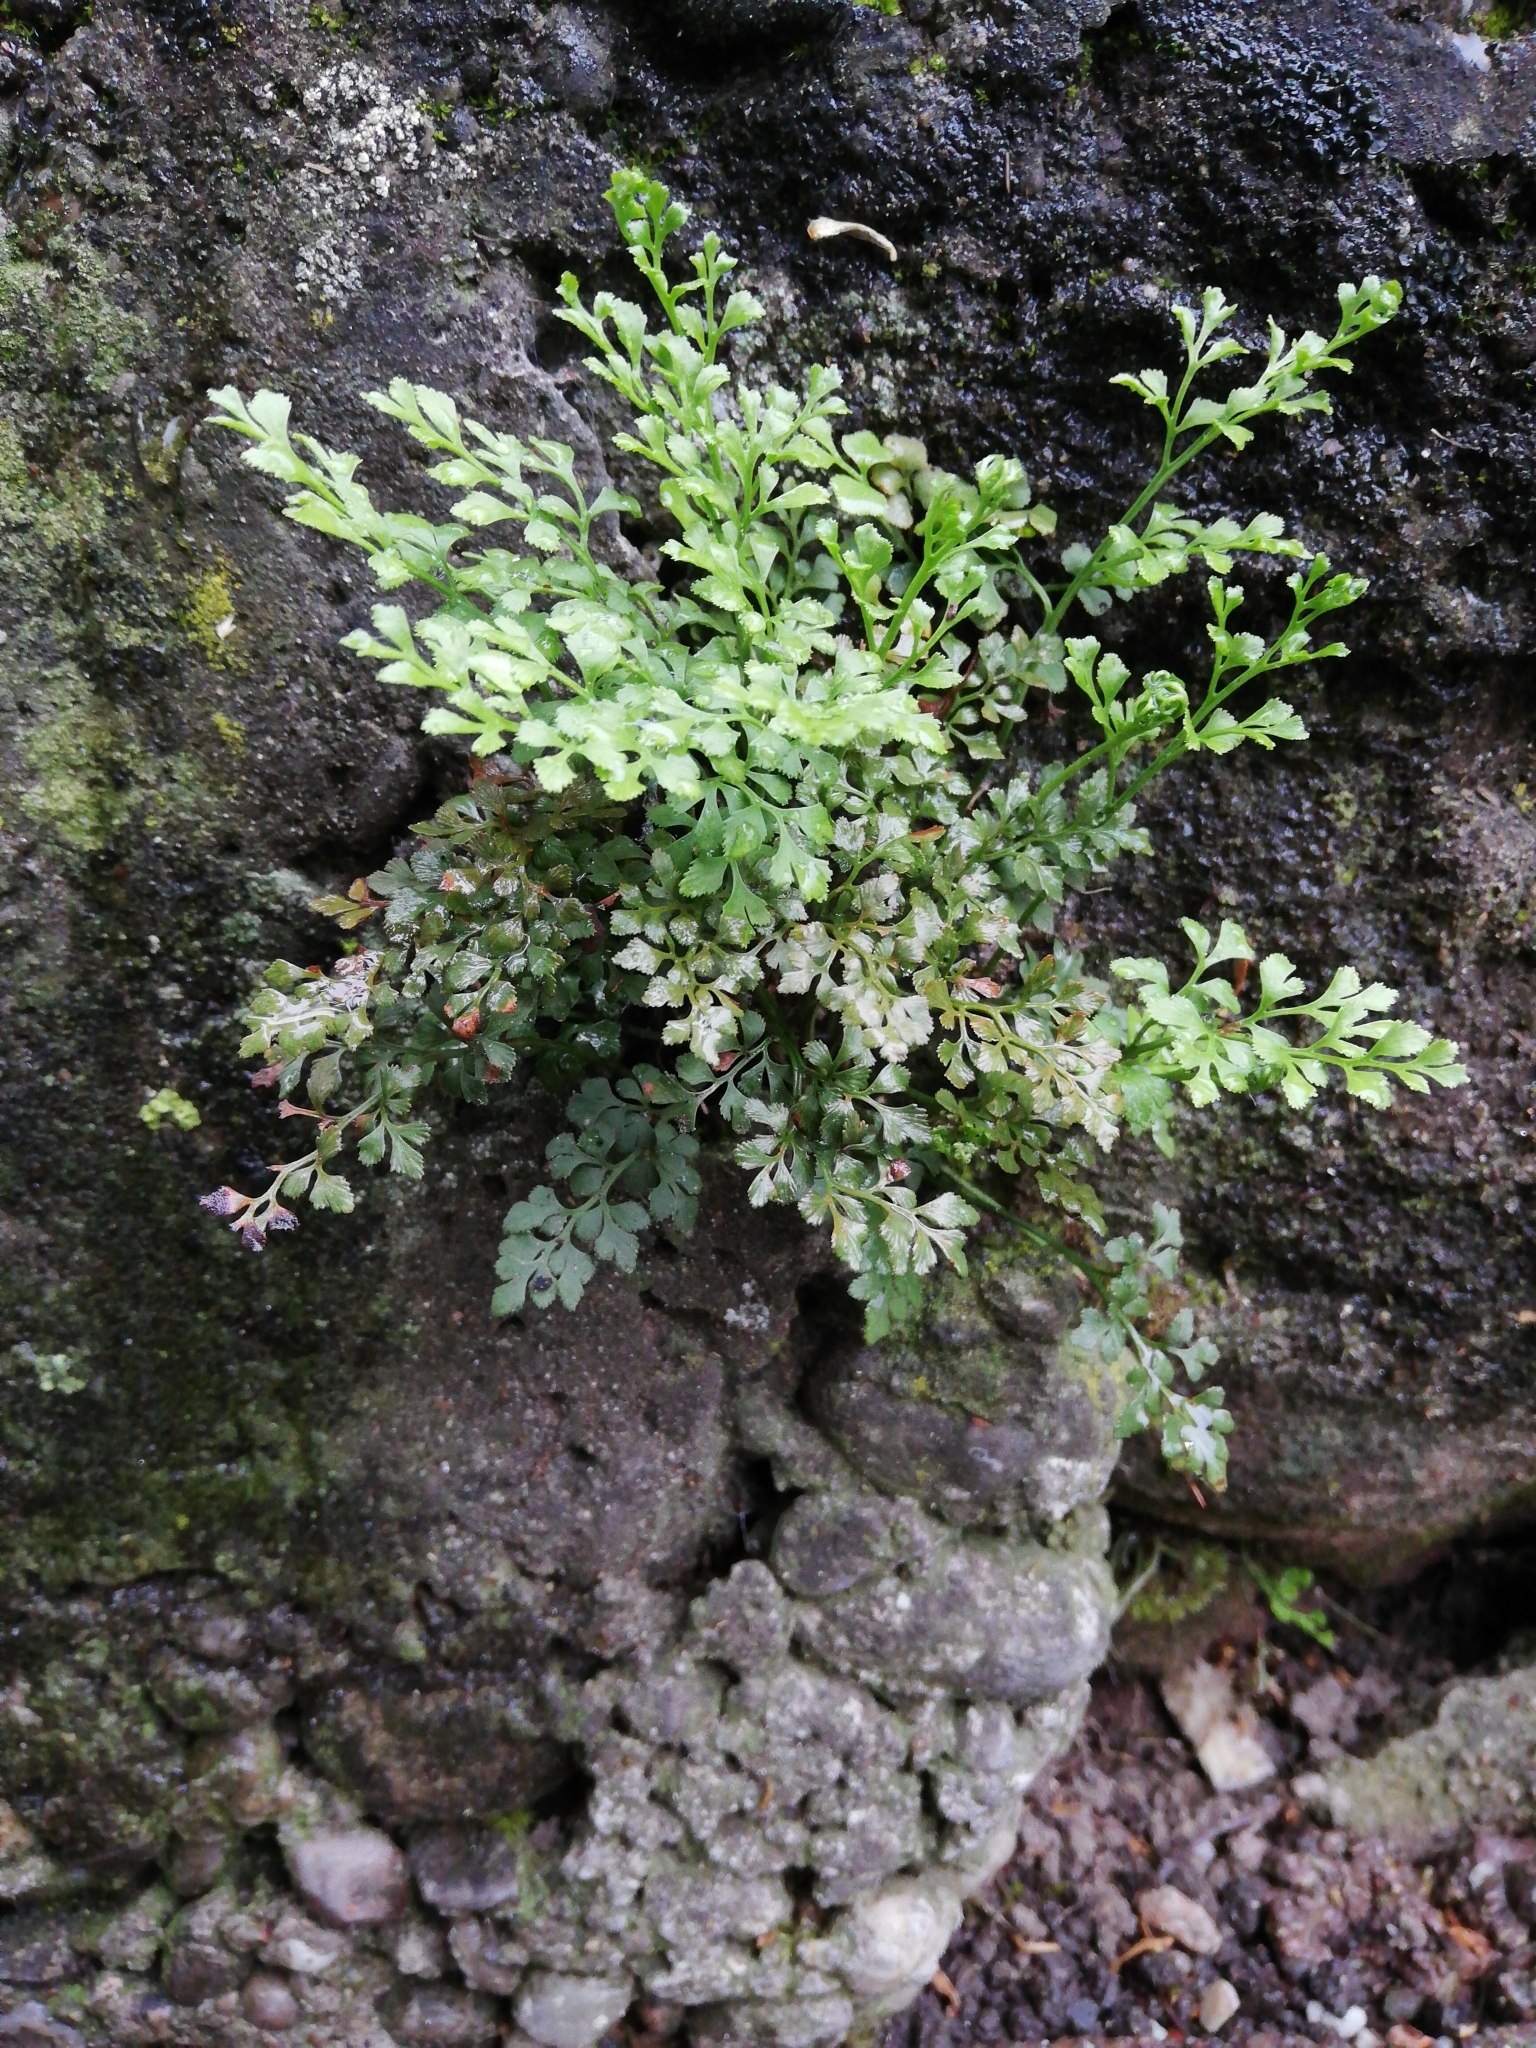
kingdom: Plantae
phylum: Tracheophyta
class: Polypodiopsida
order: Polypodiales
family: Aspleniaceae
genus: Asplenium
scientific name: Asplenium ruta-muraria
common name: Wall-rue
